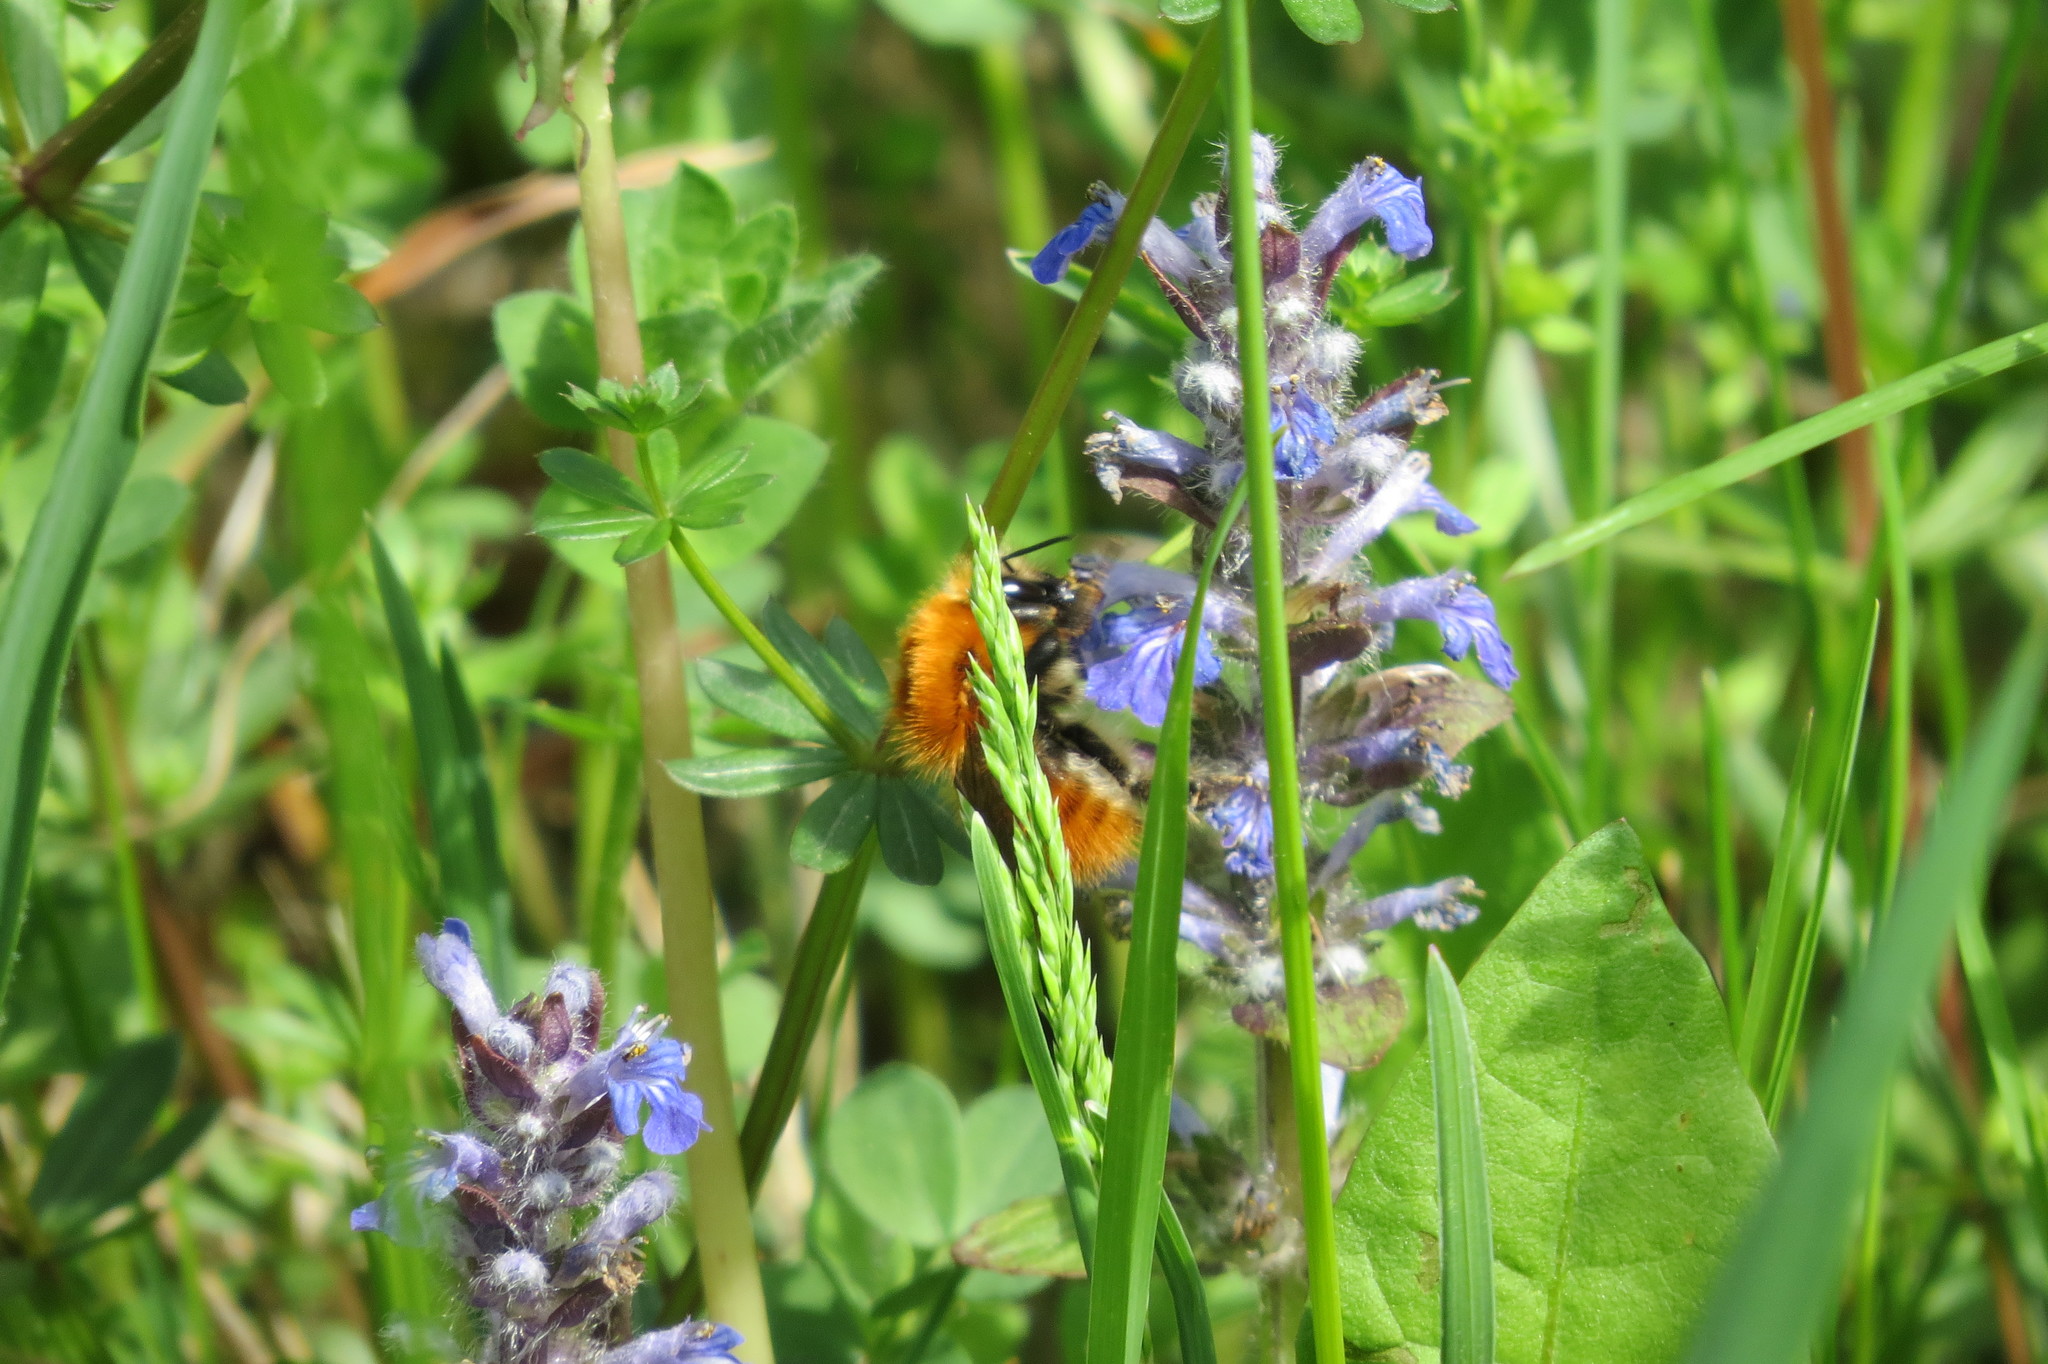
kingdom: Animalia
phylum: Arthropoda
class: Insecta
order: Hymenoptera
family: Apidae
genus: Bombus
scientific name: Bombus pascuorum
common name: Common carder bee
